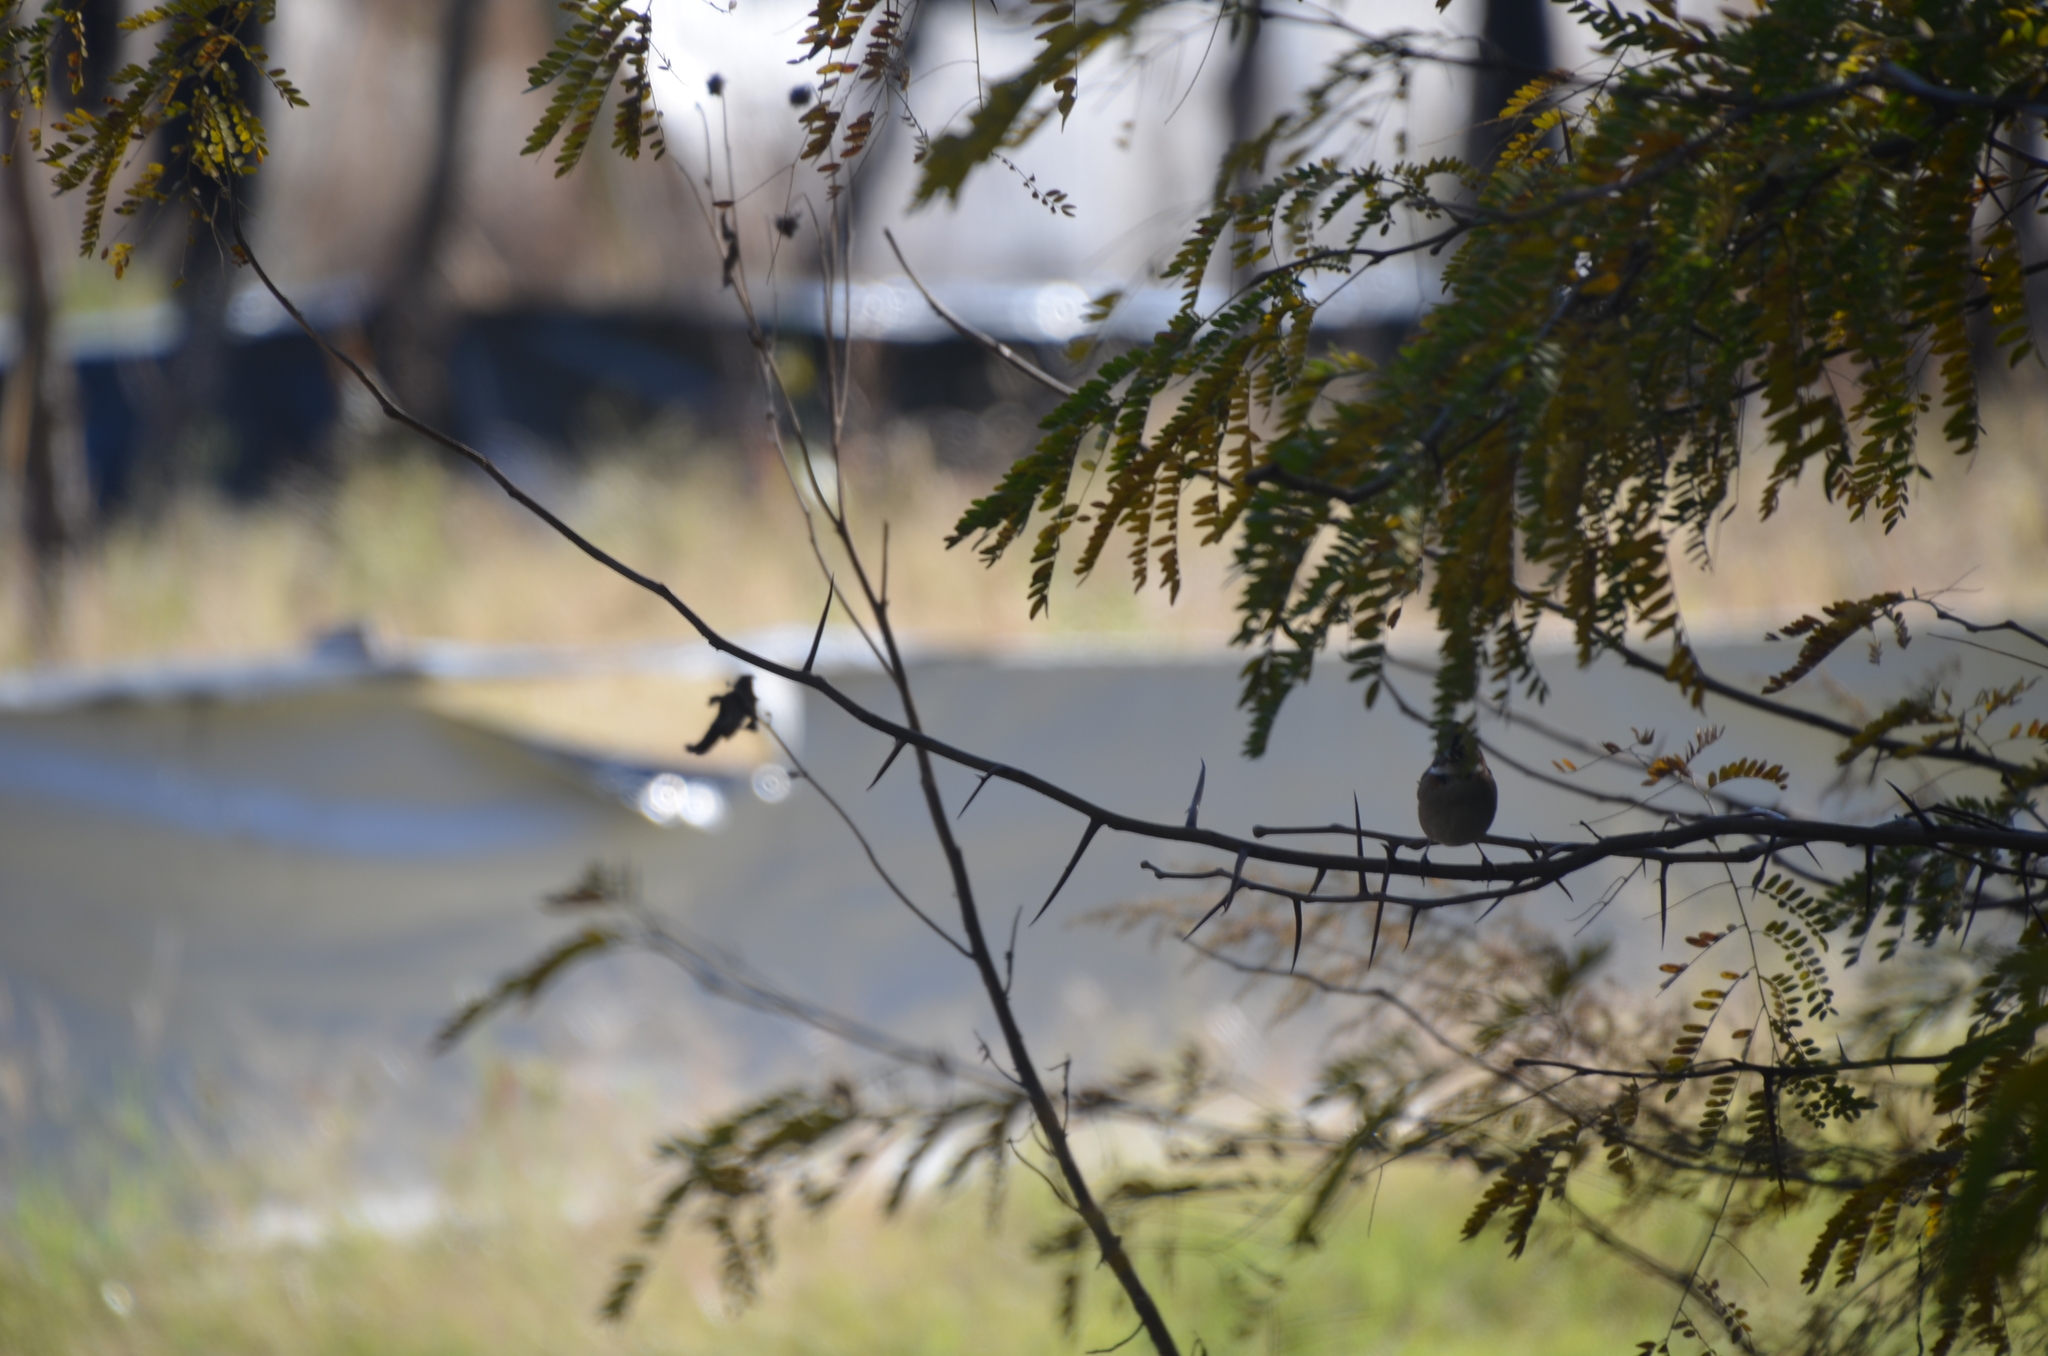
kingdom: Animalia
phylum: Chordata
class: Aves
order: Passeriformes
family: Passerellidae
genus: Zonotrichia
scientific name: Zonotrichia capensis
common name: Rufous-collared sparrow
